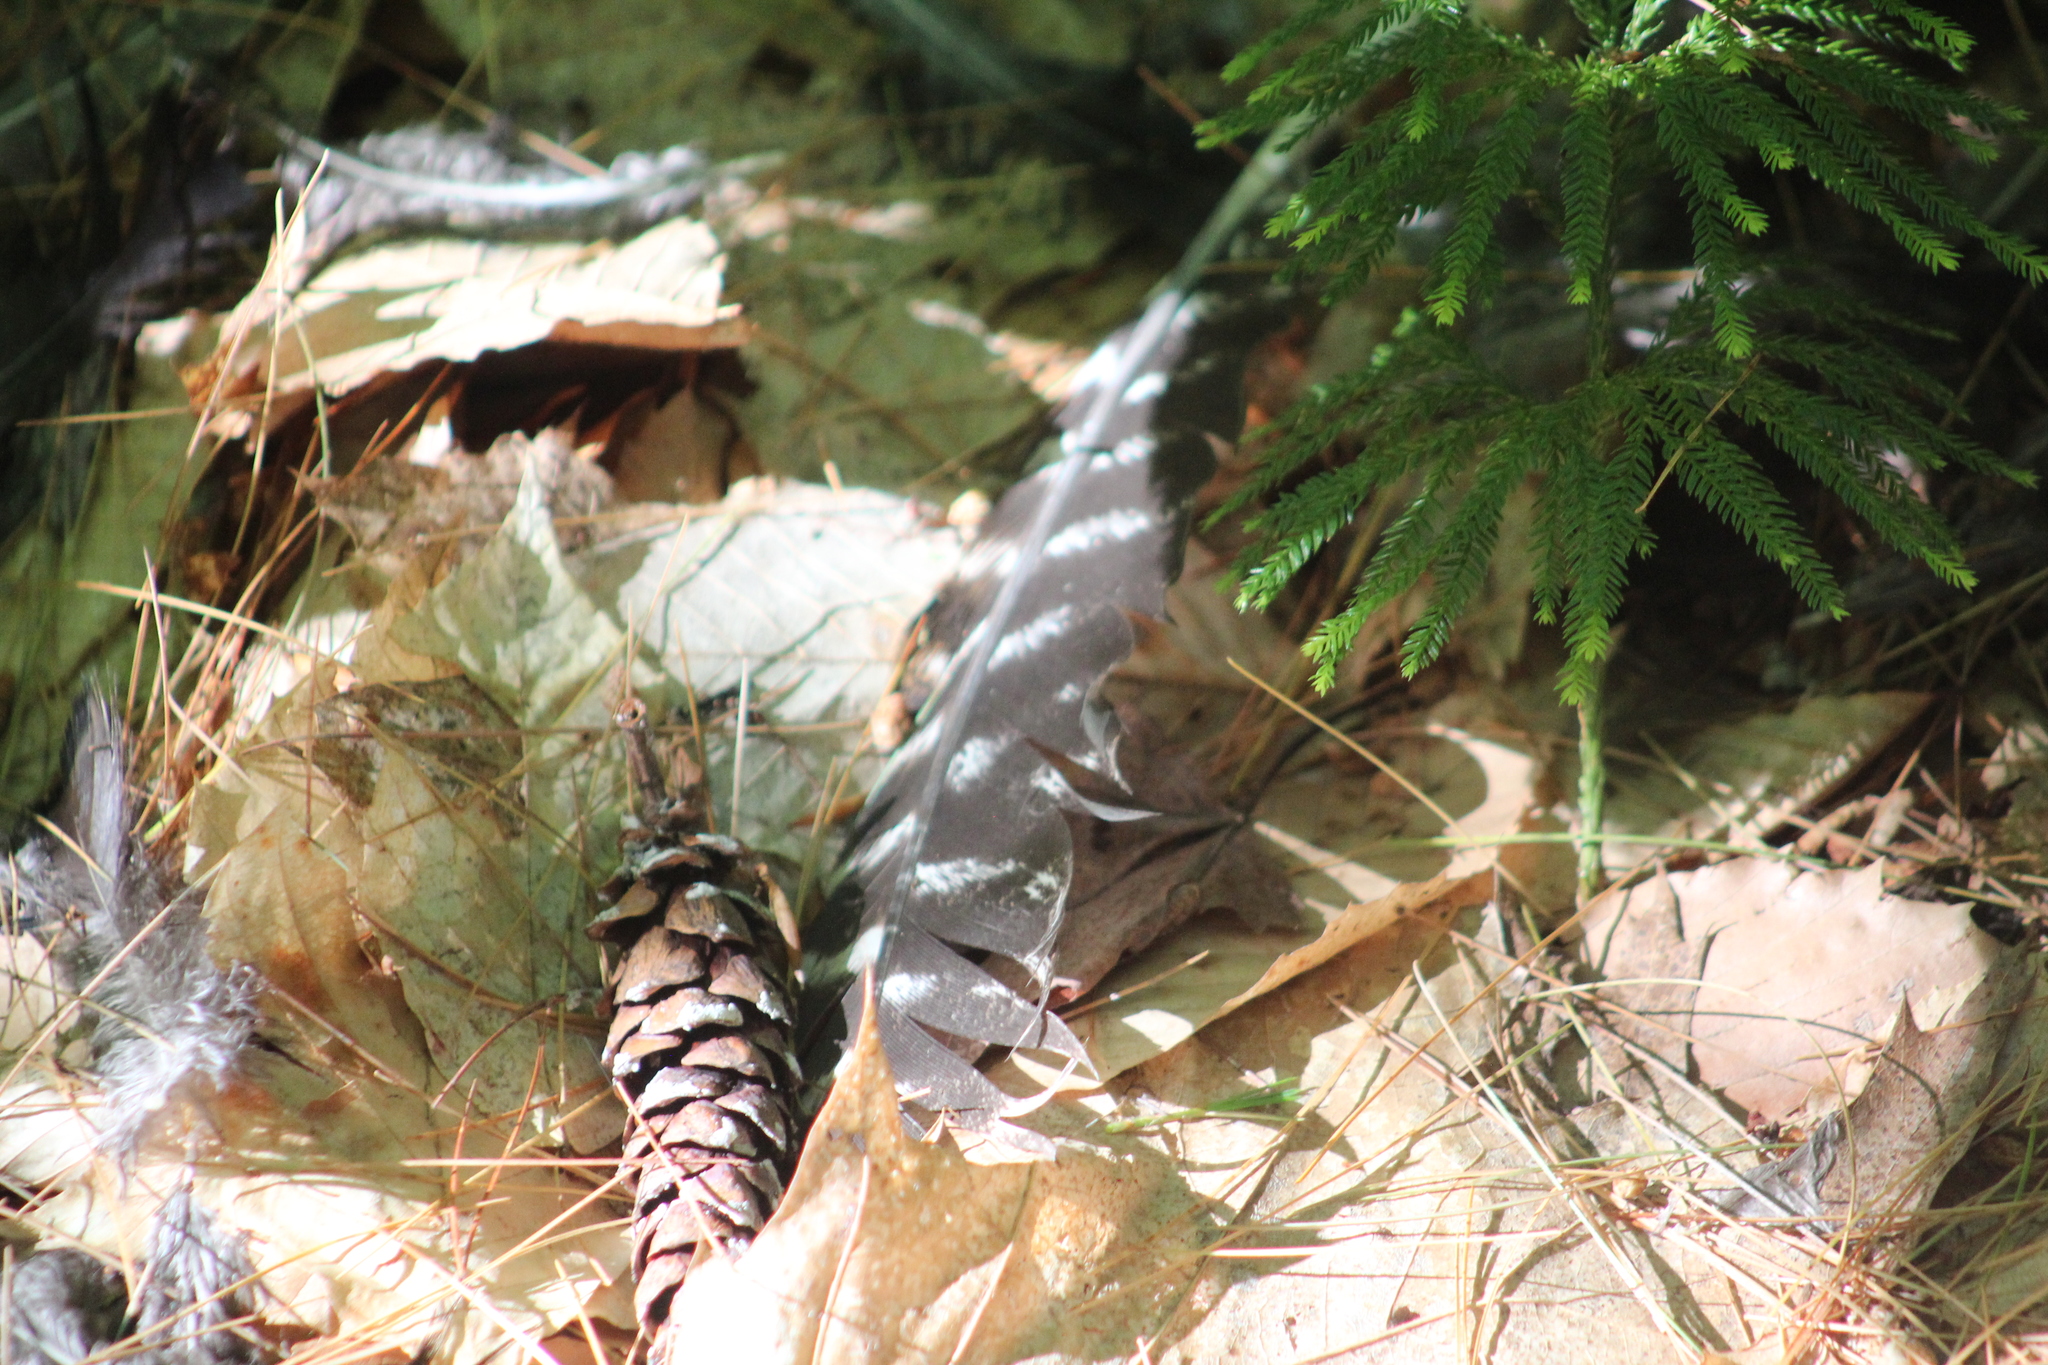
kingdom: Animalia
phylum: Chordata
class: Aves
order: Galliformes
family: Phasianidae
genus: Meleagris
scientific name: Meleagris gallopavo
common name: Wild turkey
